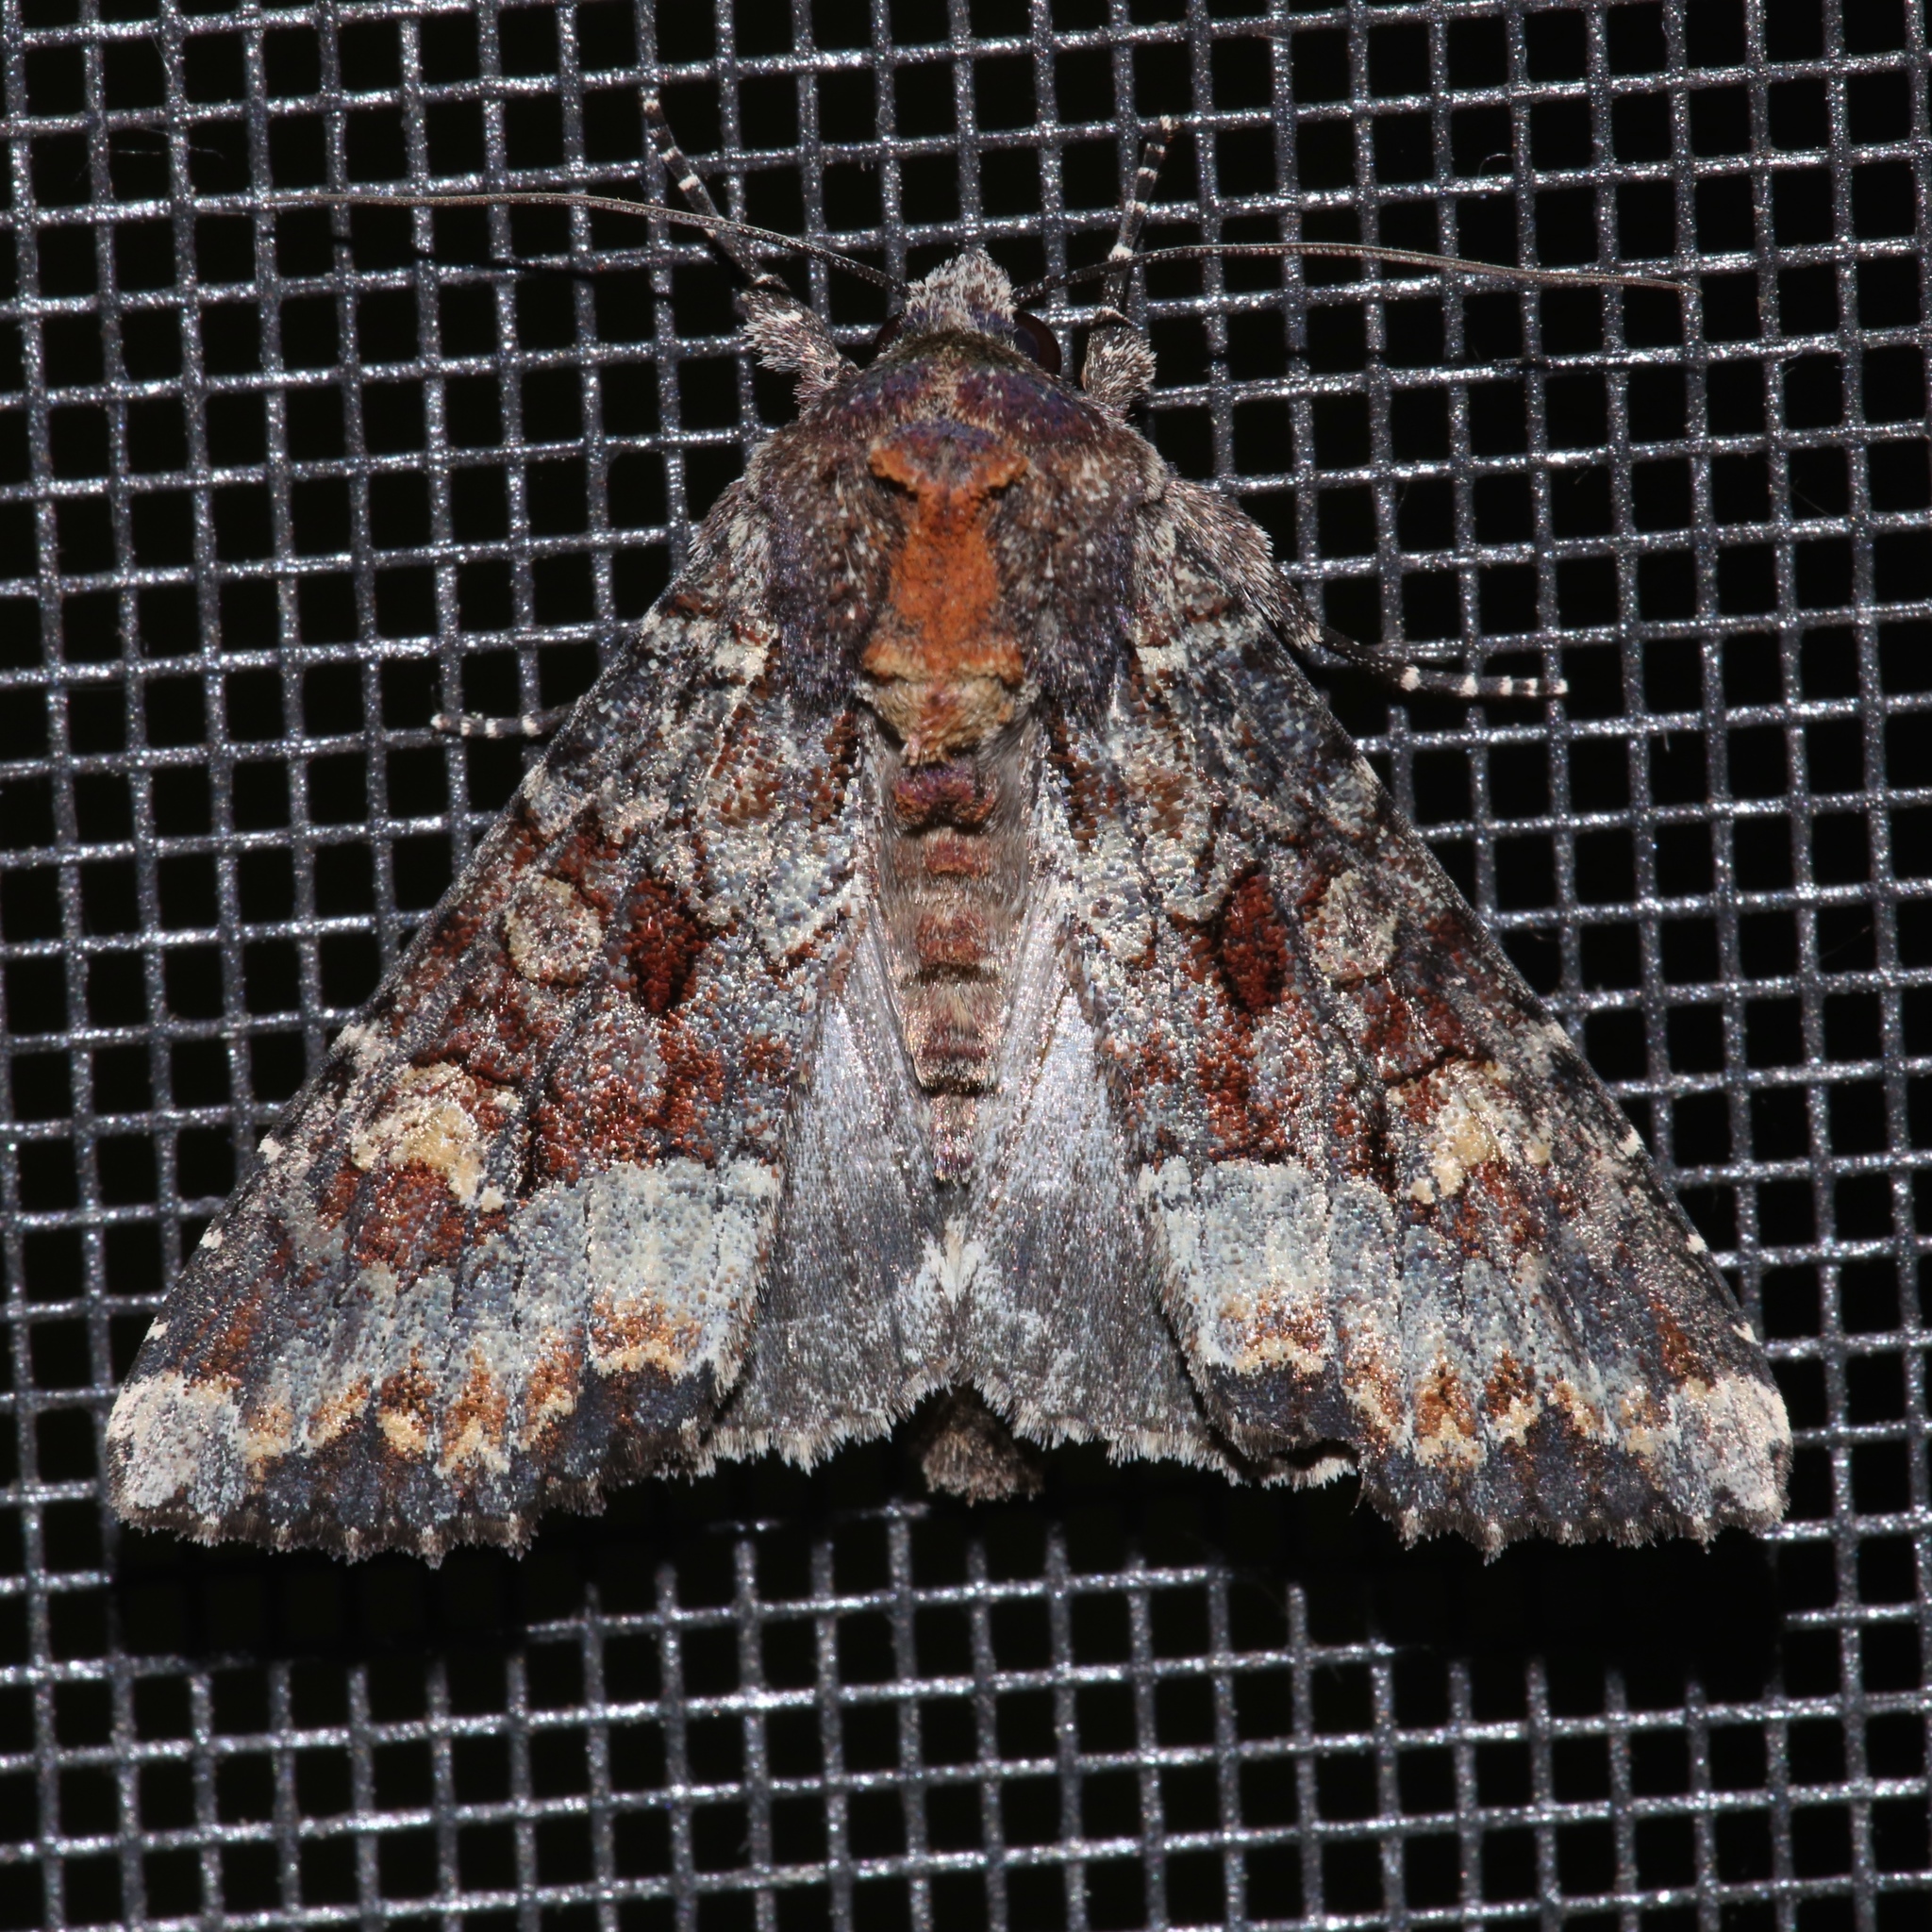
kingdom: Animalia
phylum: Arthropoda
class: Insecta
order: Lepidoptera
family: Noctuidae
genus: Apamea
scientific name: Apamea amputatrix
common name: Yellow-headed cutworm moth
